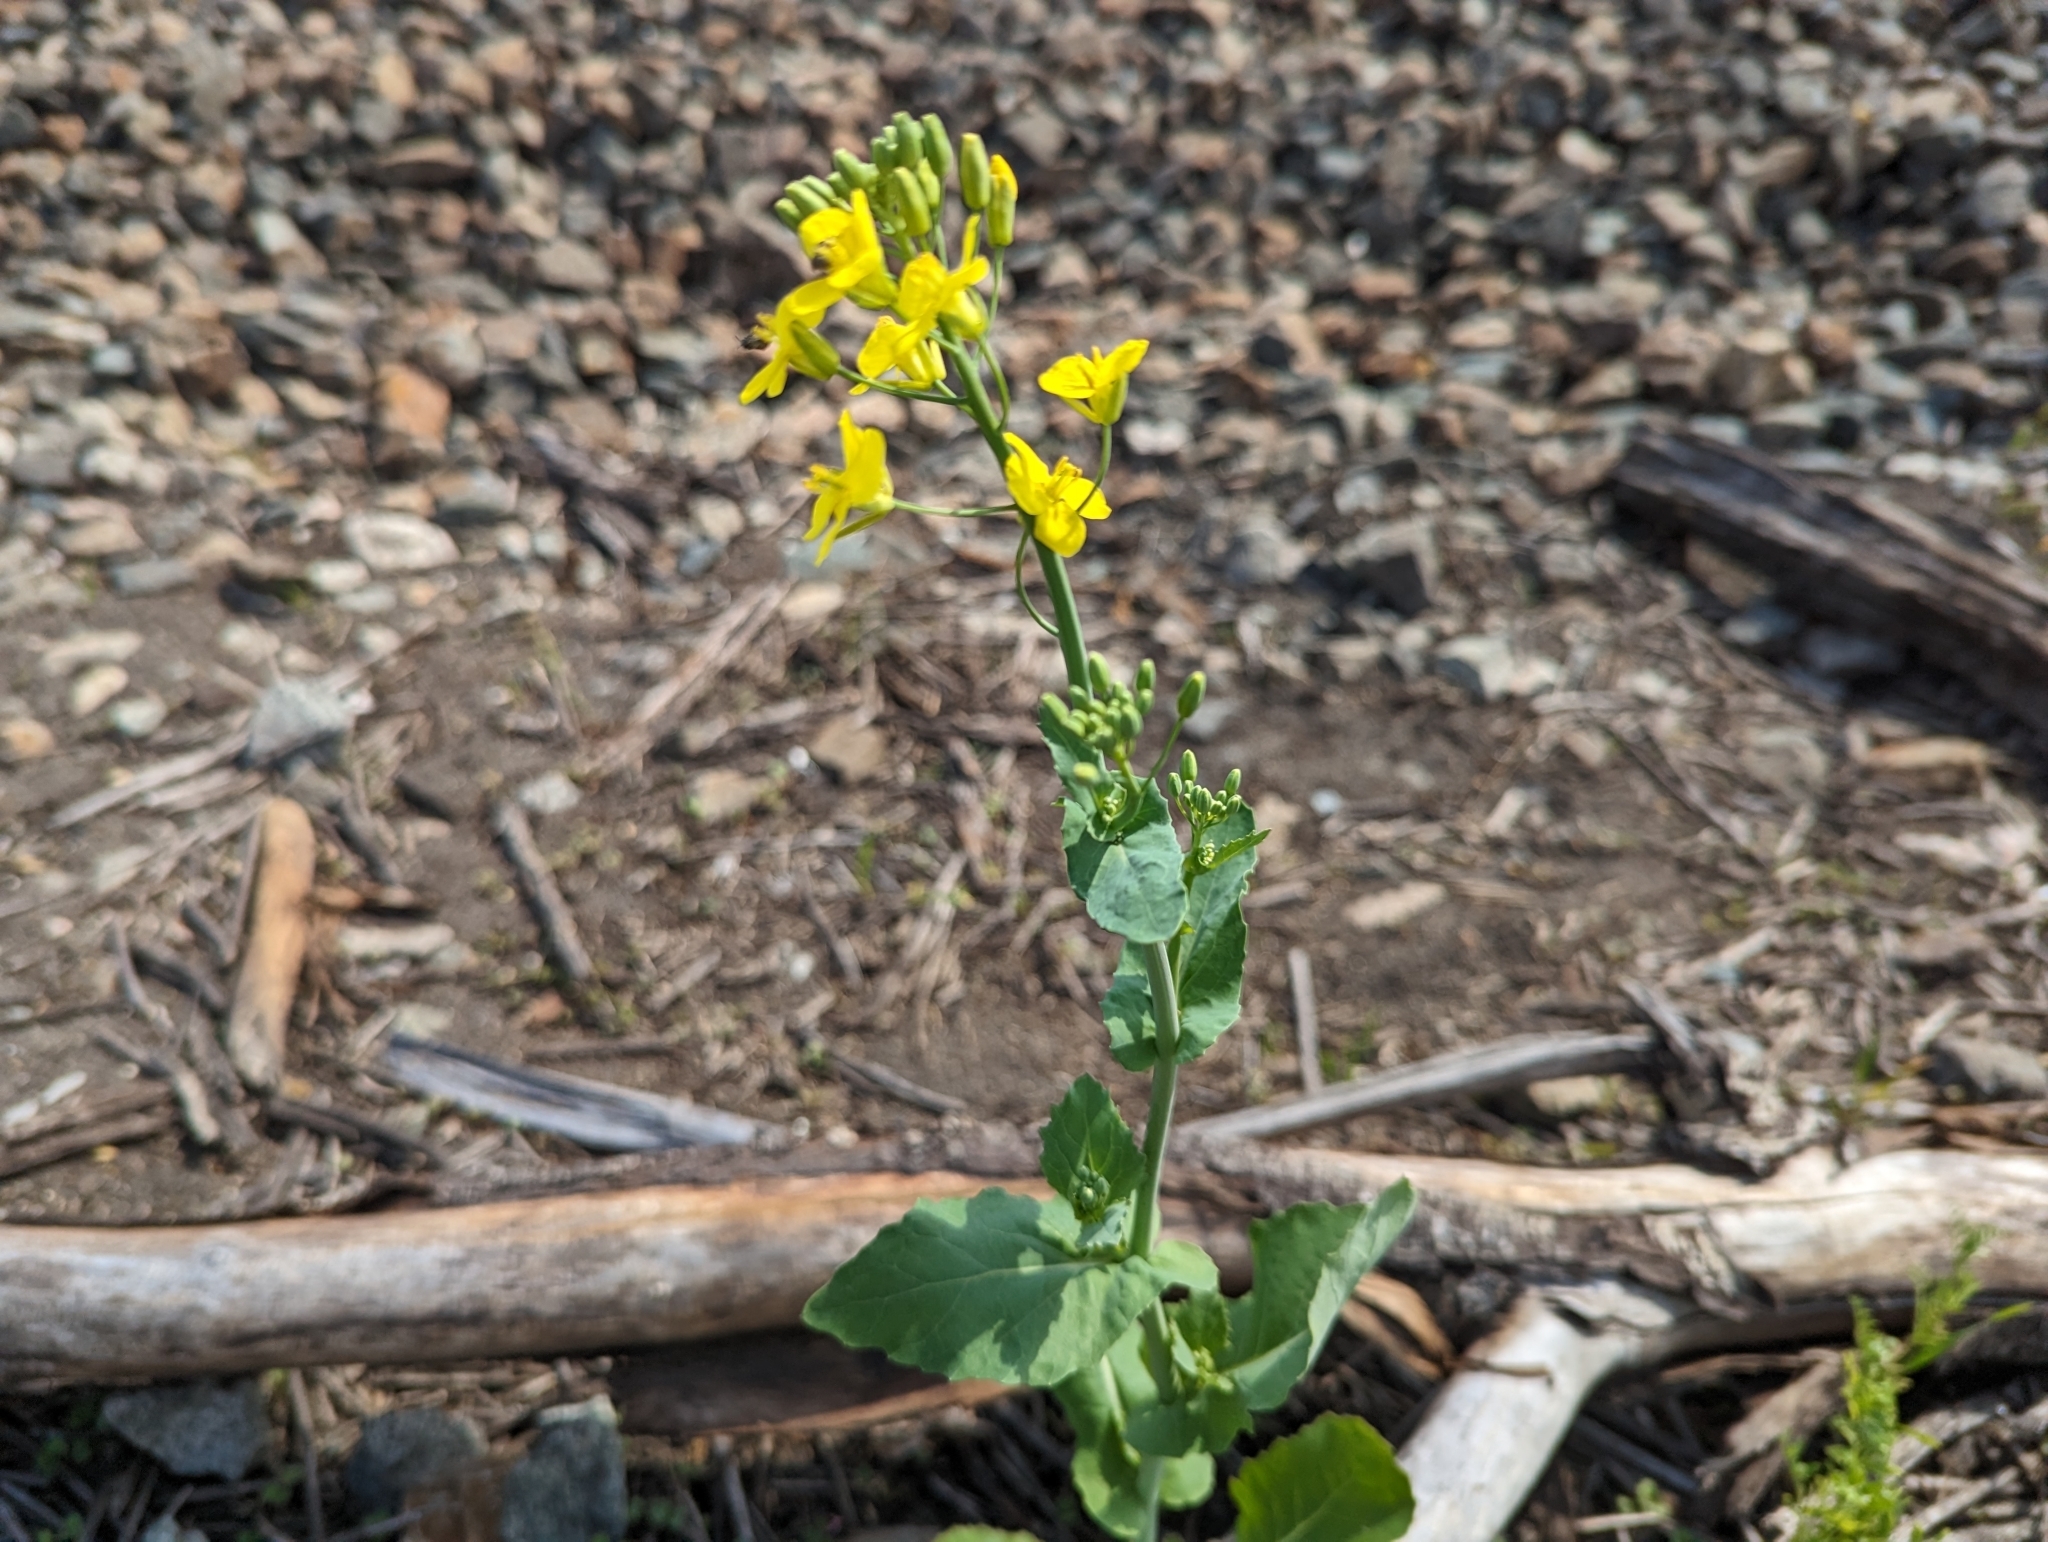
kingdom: Plantae
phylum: Tracheophyta
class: Magnoliopsida
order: Brassicales
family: Brassicaceae
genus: Brassica
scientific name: Brassica rapa
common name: Field mustard
